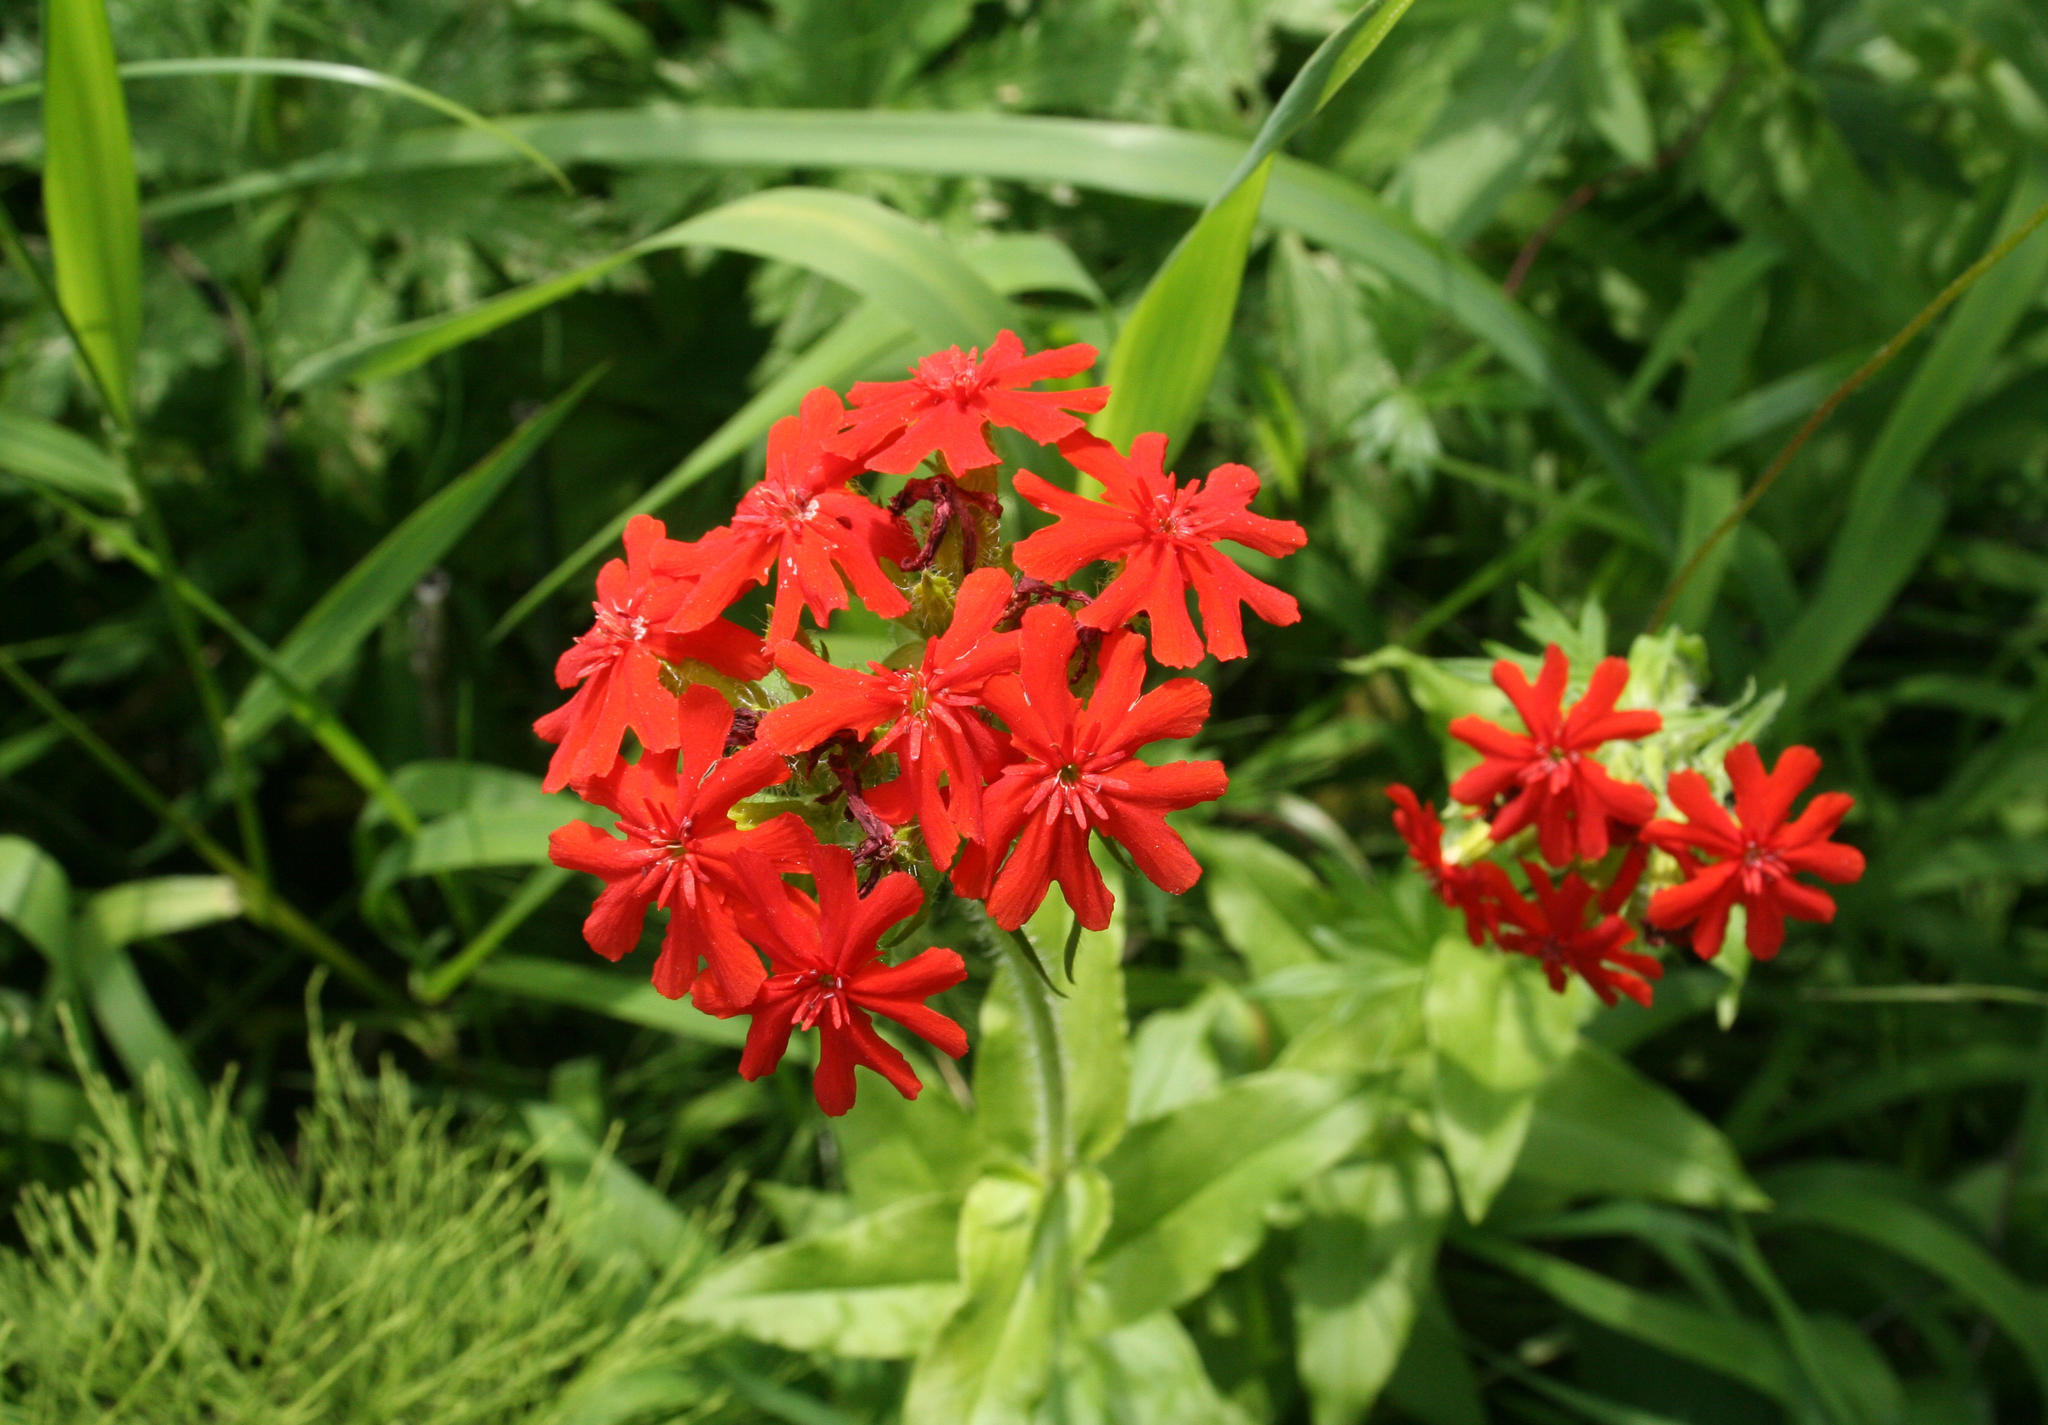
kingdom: Plantae
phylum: Tracheophyta
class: Magnoliopsida
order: Caryophyllales
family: Caryophyllaceae
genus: Silene
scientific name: Silene chalcedonica
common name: Maltese-cross
